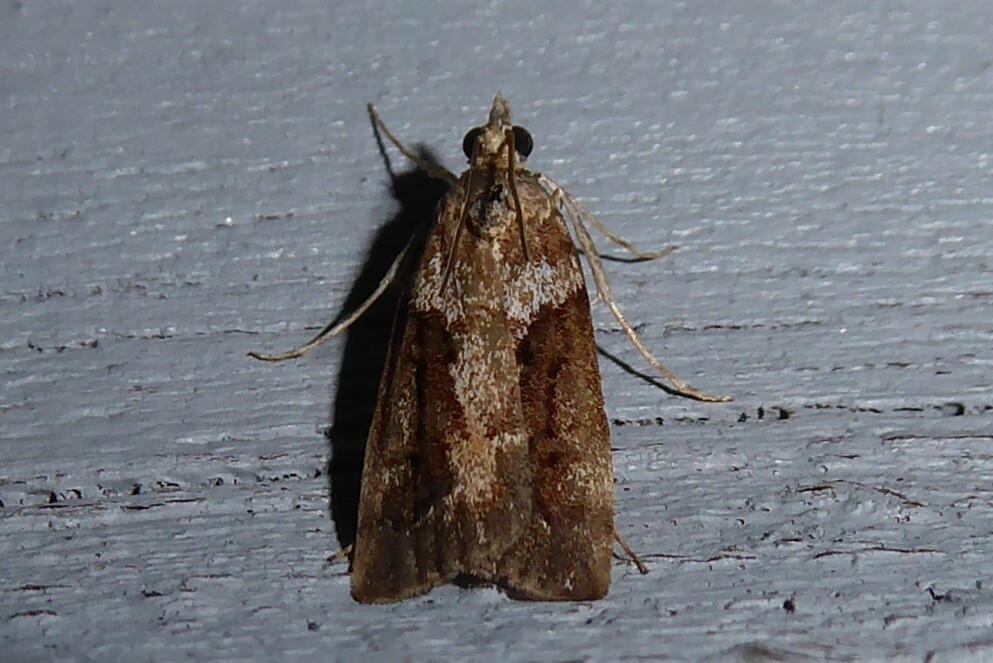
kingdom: Animalia
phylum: Arthropoda
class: Insecta
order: Lepidoptera
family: Crambidae
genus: Eudonia
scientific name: Eudonia submarginalis
